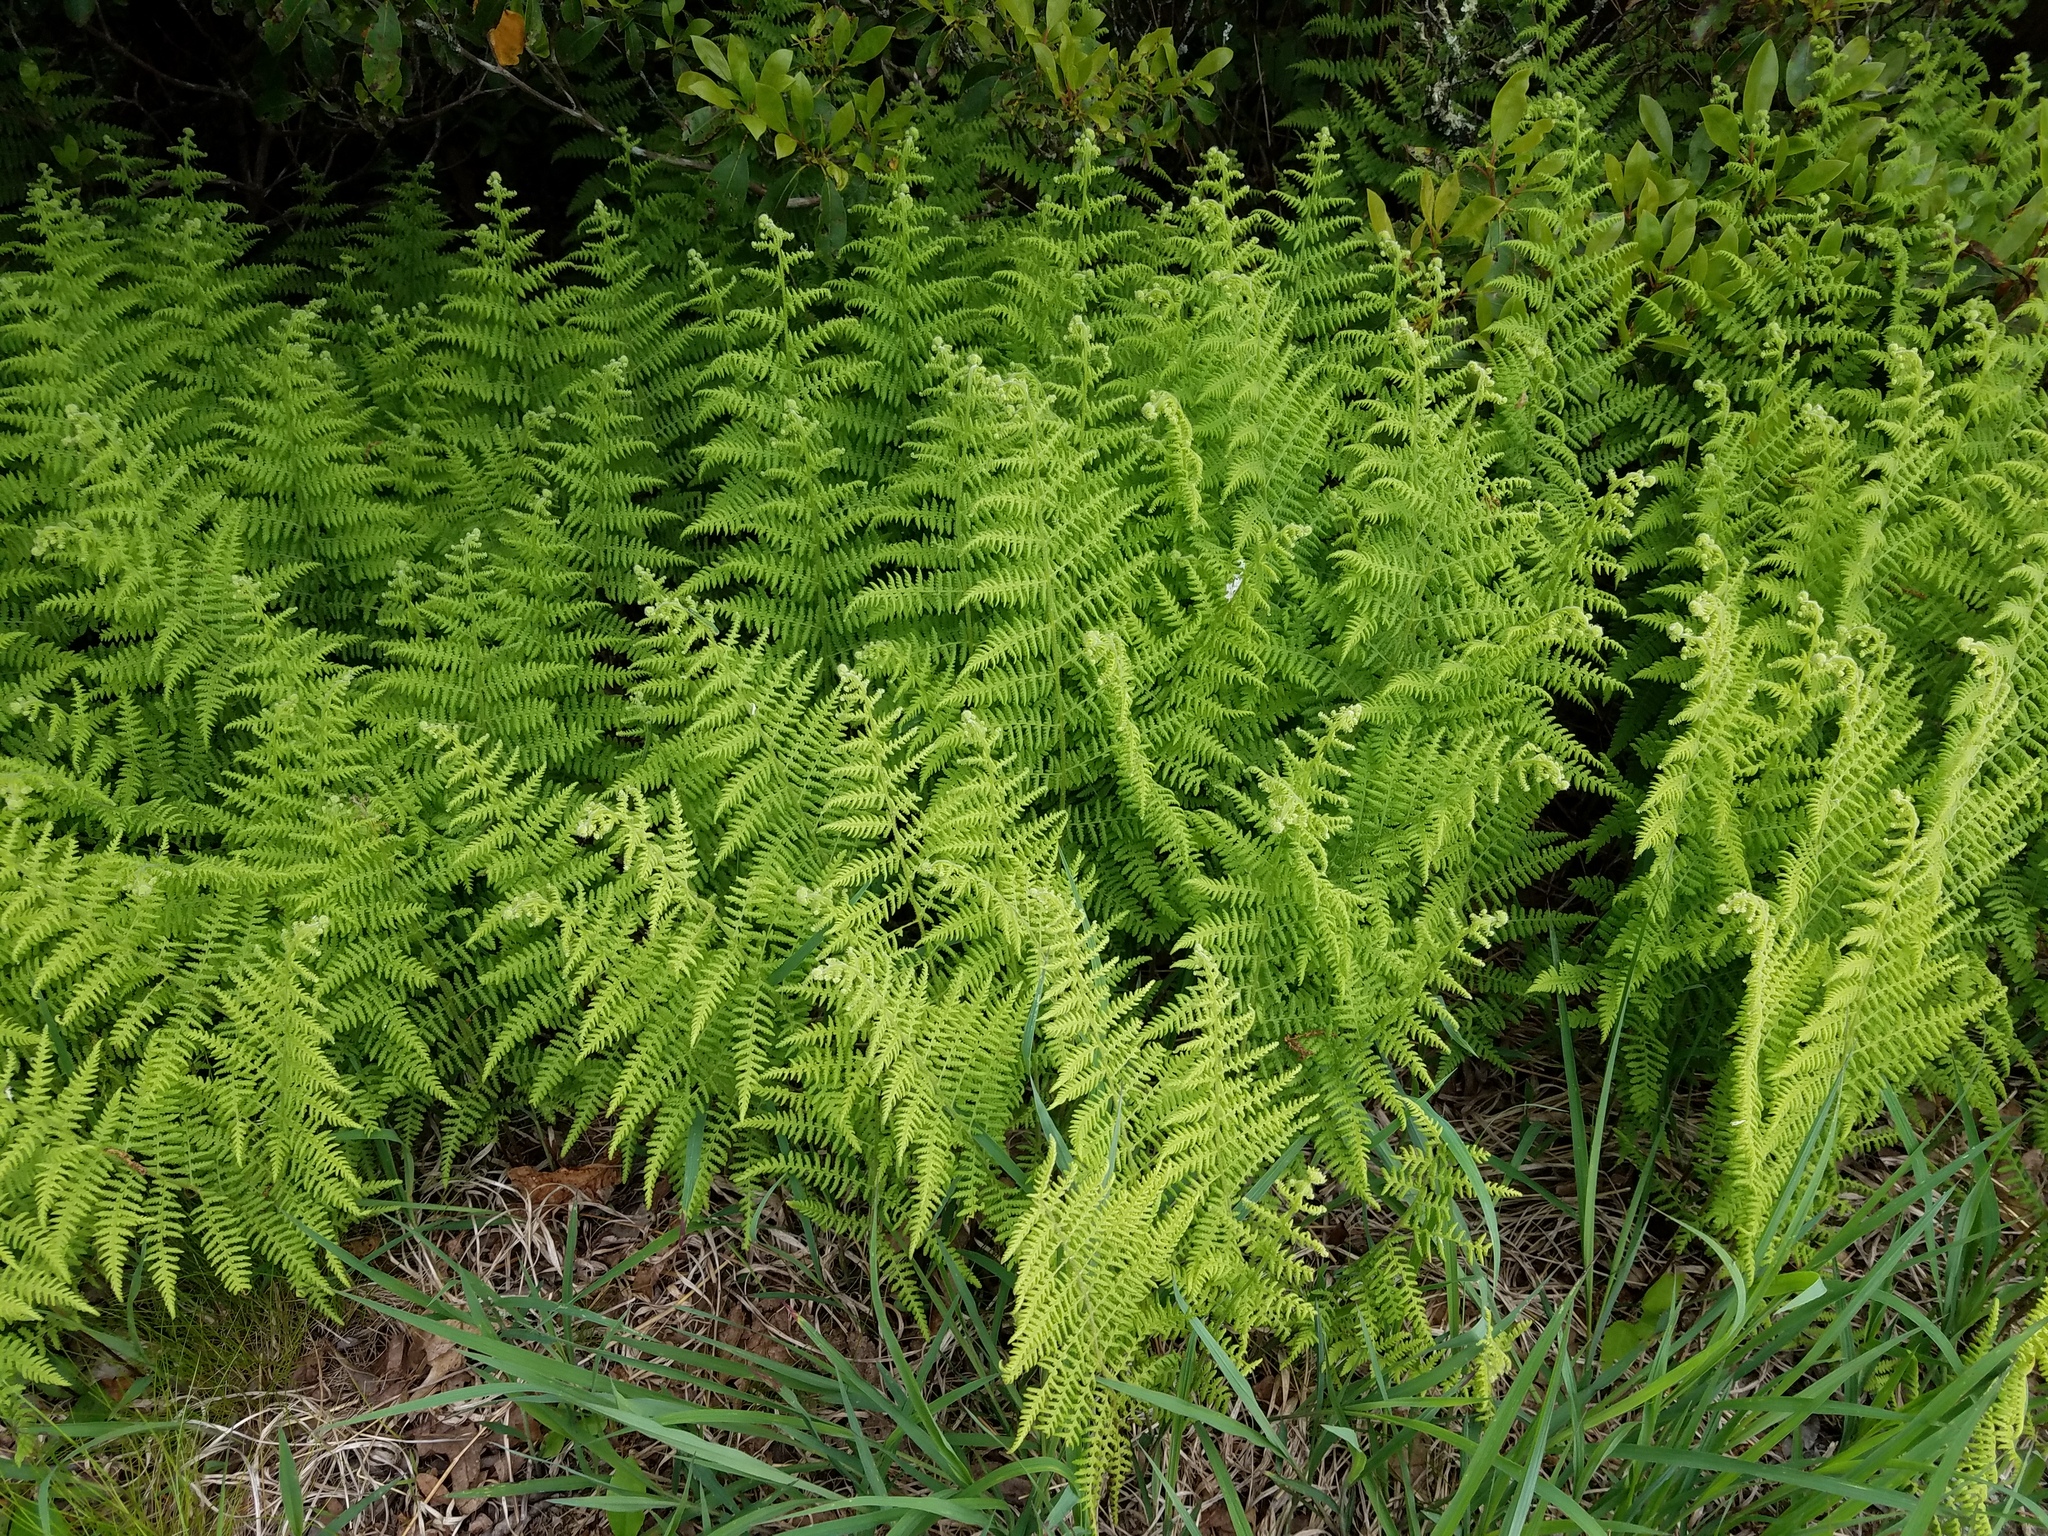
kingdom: Plantae
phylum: Tracheophyta
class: Polypodiopsida
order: Polypodiales
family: Dennstaedtiaceae
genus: Sitobolium
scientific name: Sitobolium punctilobum
